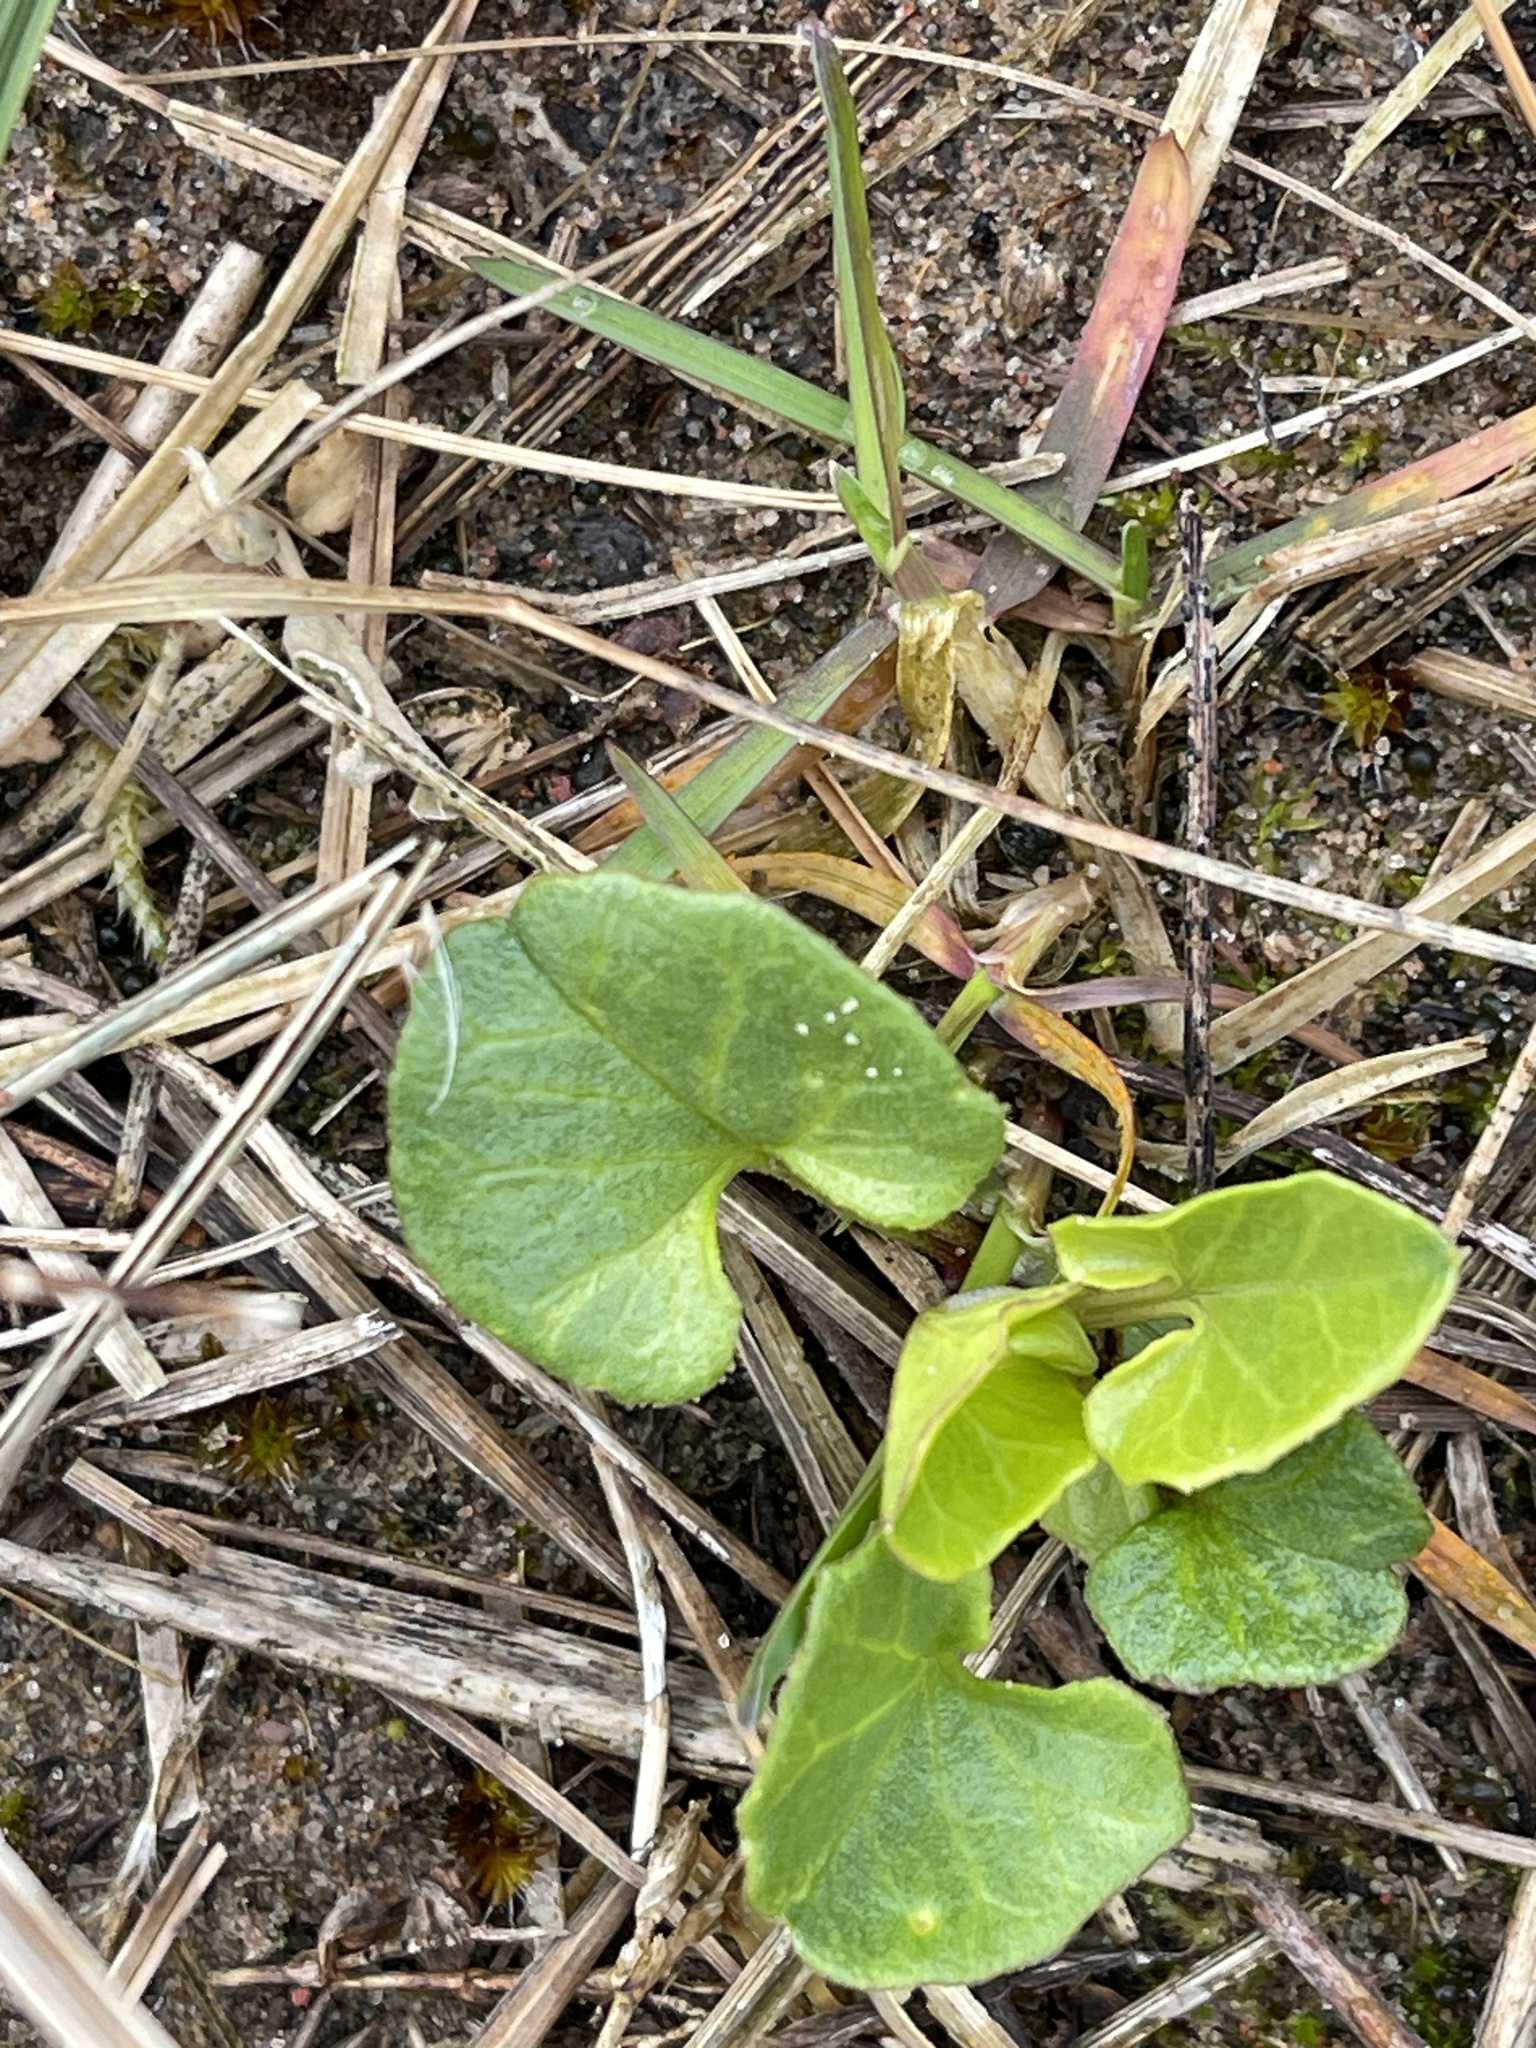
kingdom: Plantae
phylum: Tracheophyta
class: Magnoliopsida
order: Solanales
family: Convolvulaceae
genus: Calystegia
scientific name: Calystegia soldanella
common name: Sea bindweed
